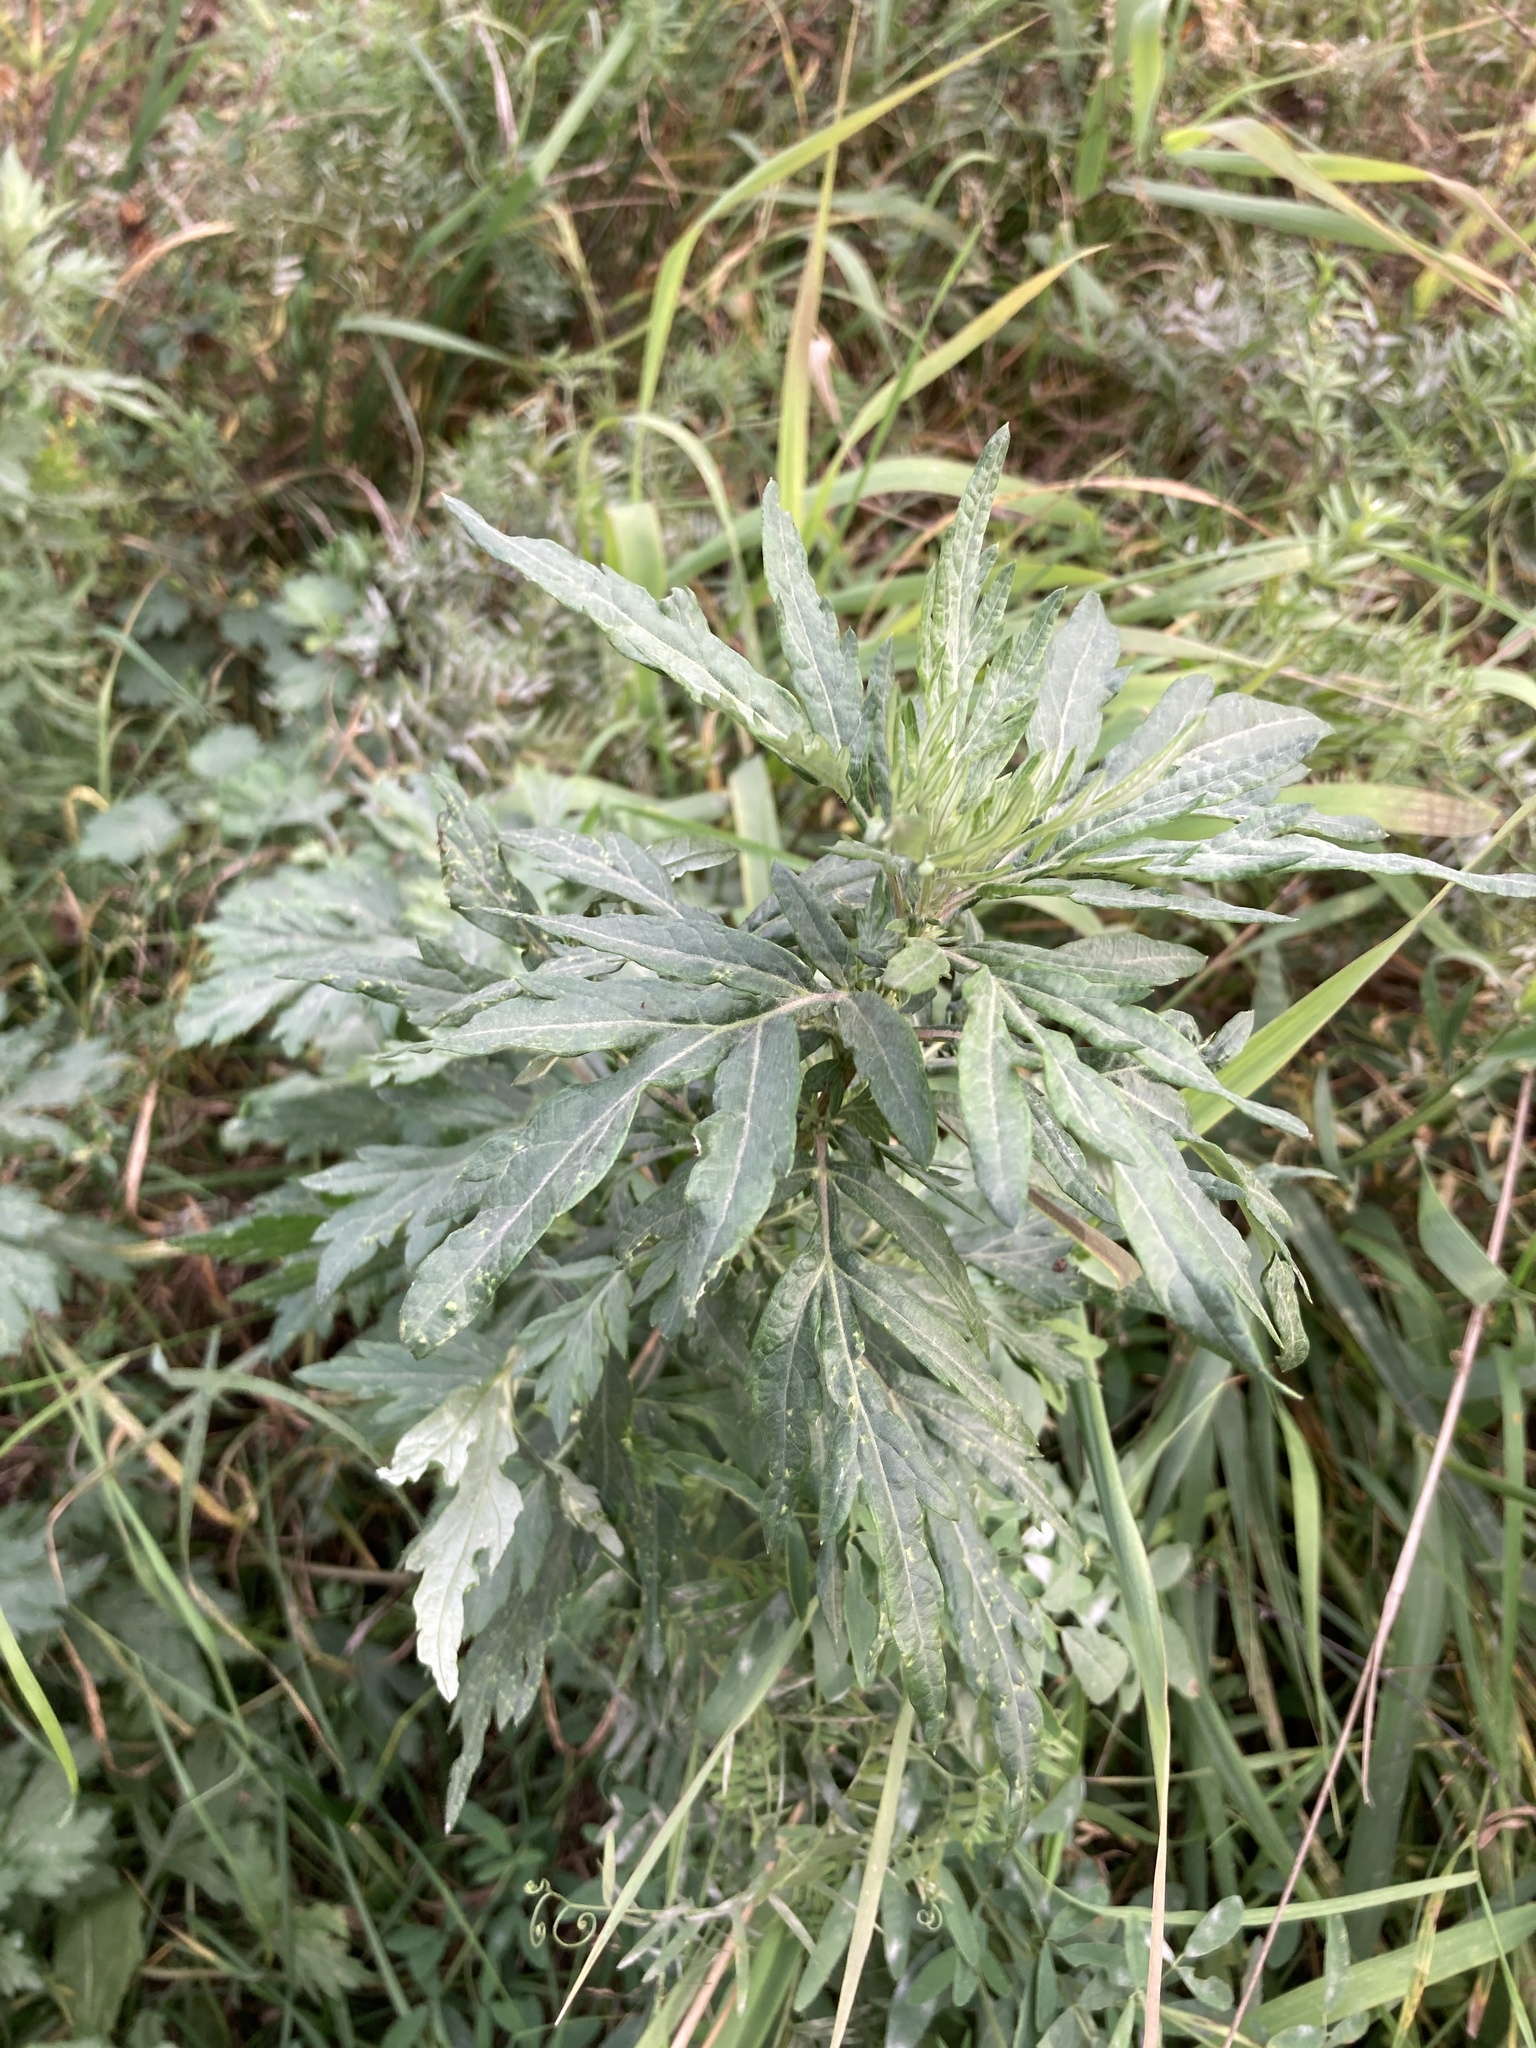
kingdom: Plantae
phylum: Tracheophyta
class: Magnoliopsida
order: Asterales
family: Asteraceae
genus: Artemisia
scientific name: Artemisia vulgaris
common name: Mugwort
